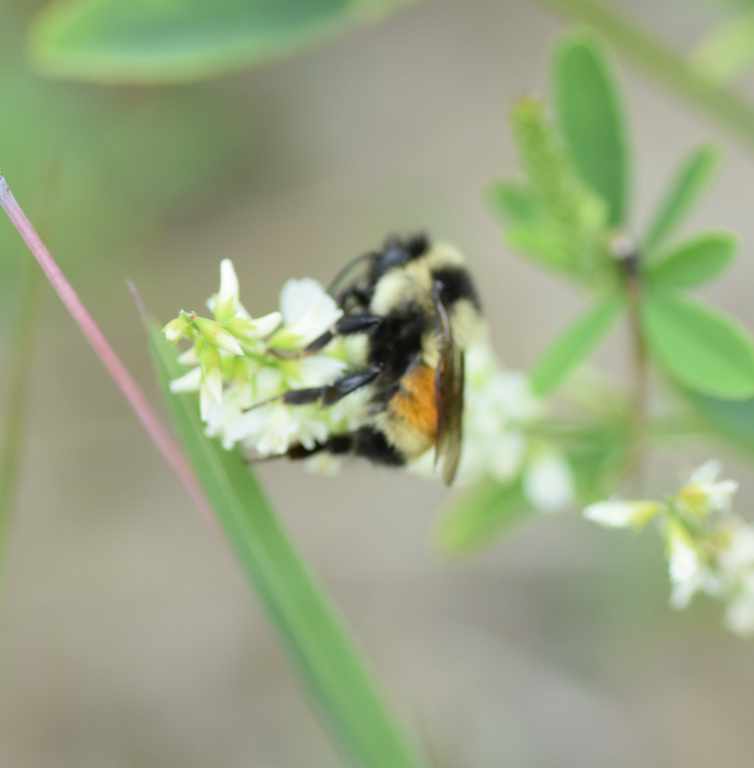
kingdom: Animalia
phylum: Arthropoda
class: Insecta
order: Hymenoptera
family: Apidae
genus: Bombus
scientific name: Bombus ternarius
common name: Tri-colored bumble bee
